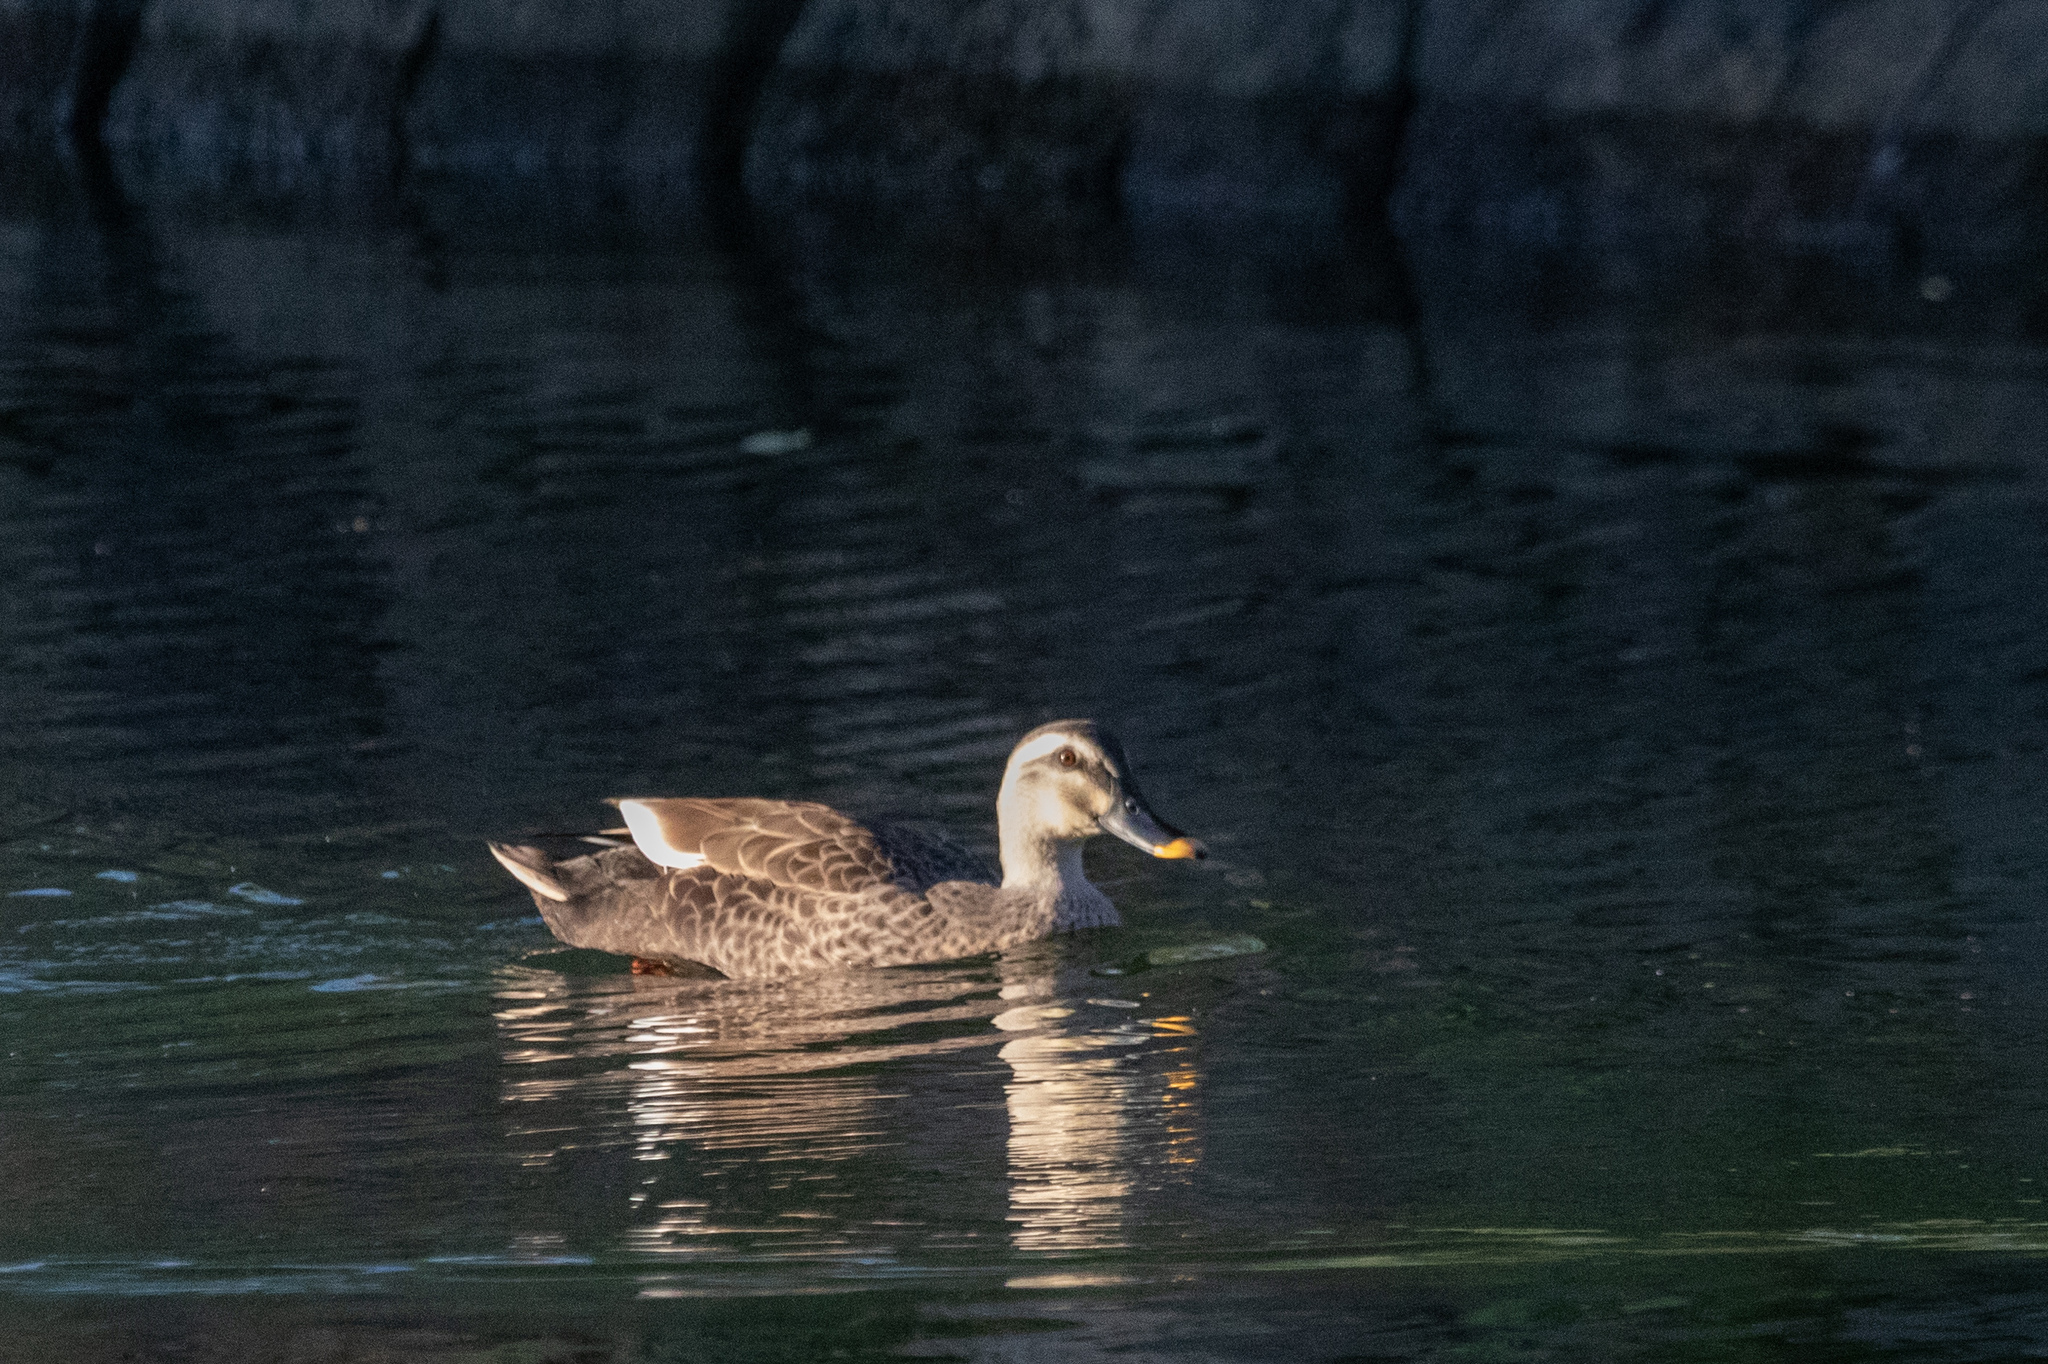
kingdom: Animalia
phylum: Chordata
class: Aves
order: Anseriformes
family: Anatidae
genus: Anas
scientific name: Anas zonorhyncha
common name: Eastern spot-billed duck
